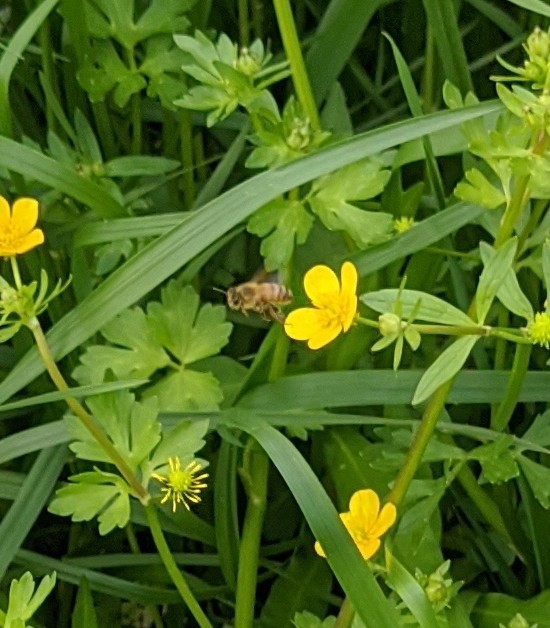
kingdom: Animalia
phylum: Arthropoda
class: Insecta
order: Hymenoptera
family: Apidae
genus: Apis
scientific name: Apis mellifera
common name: Honey bee
